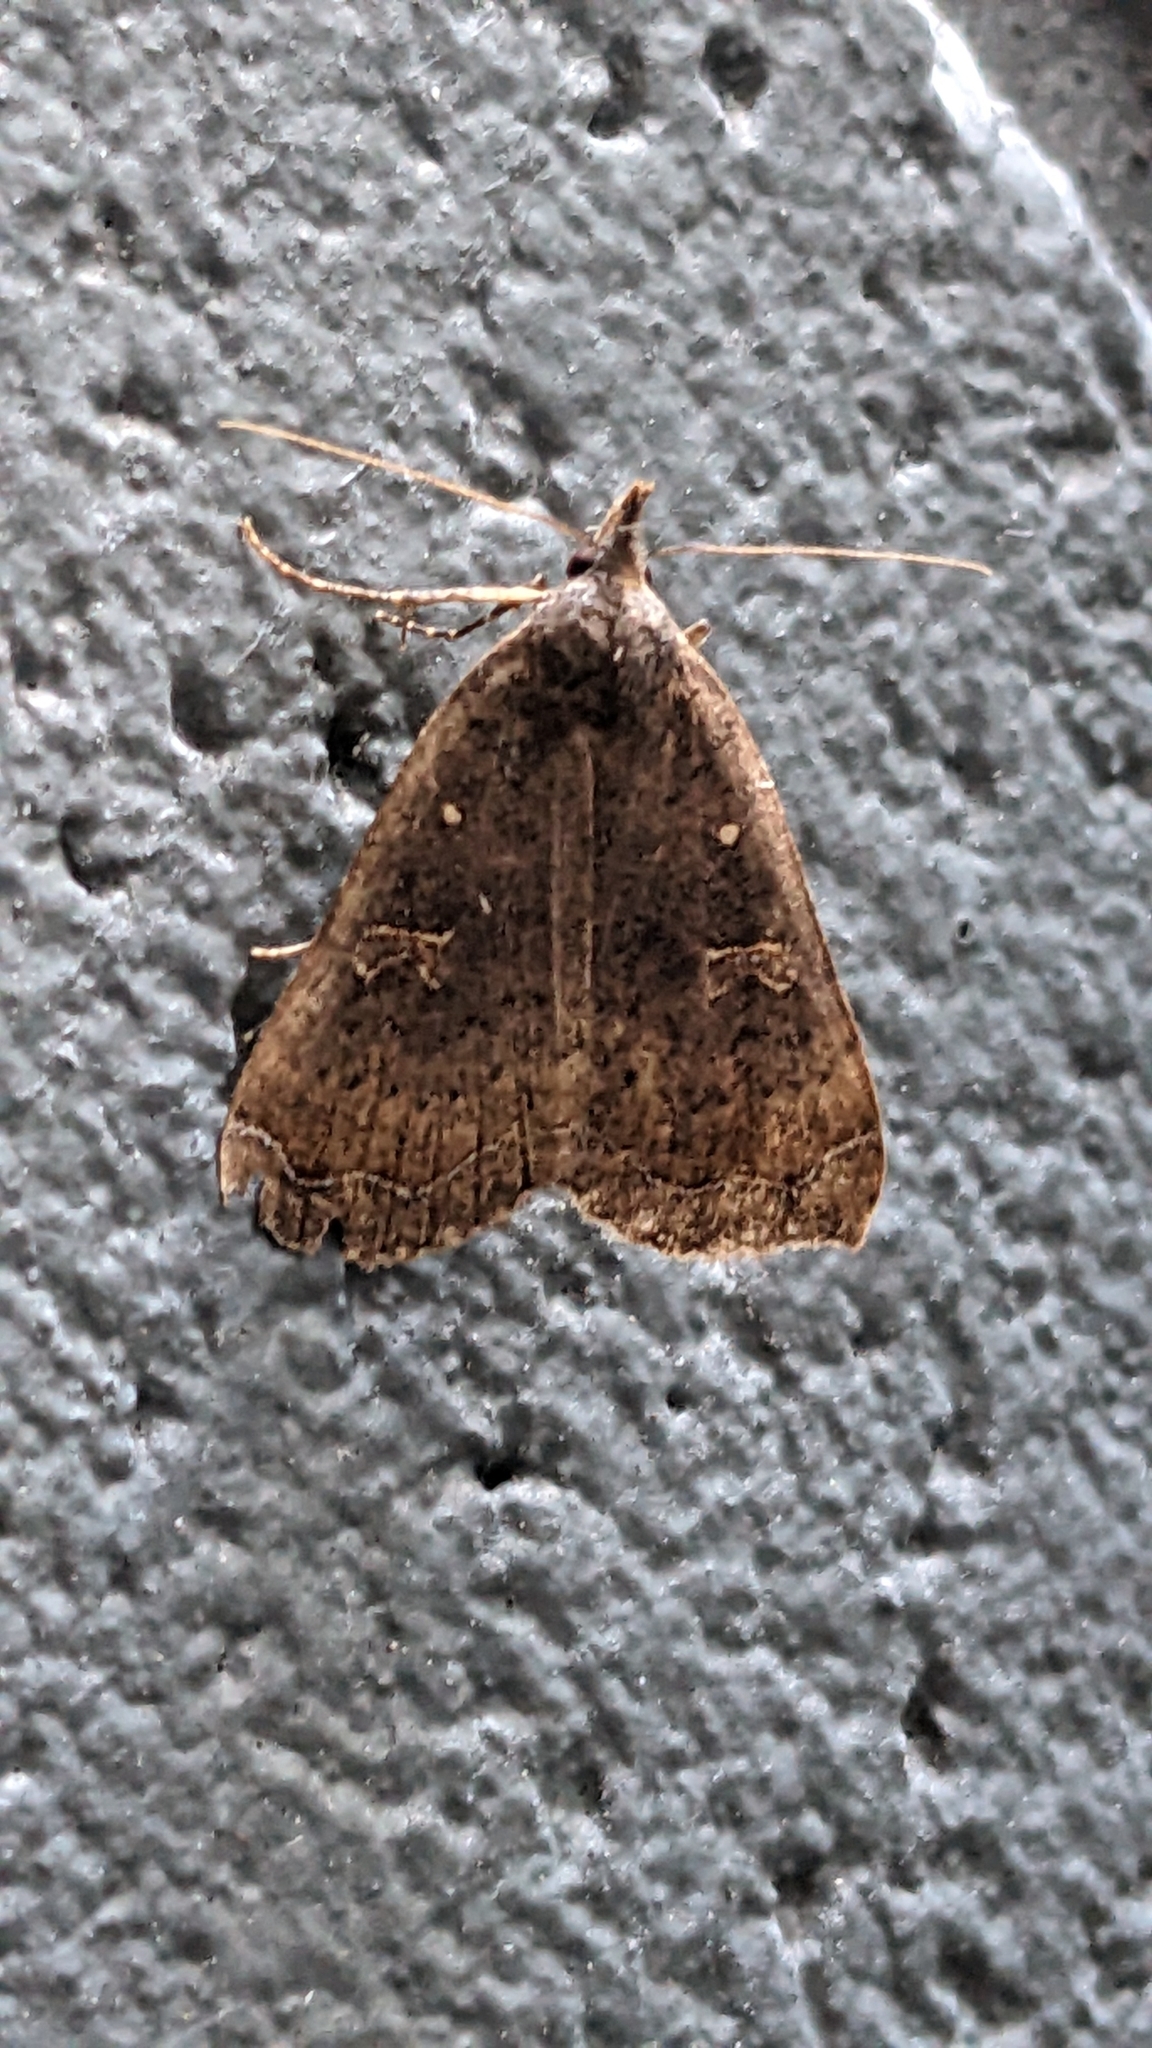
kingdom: Animalia
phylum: Arthropoda
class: Insecta
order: Lepidoptera
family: Erebidae
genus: Rhapsa
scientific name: Rhapsa scotosialis
